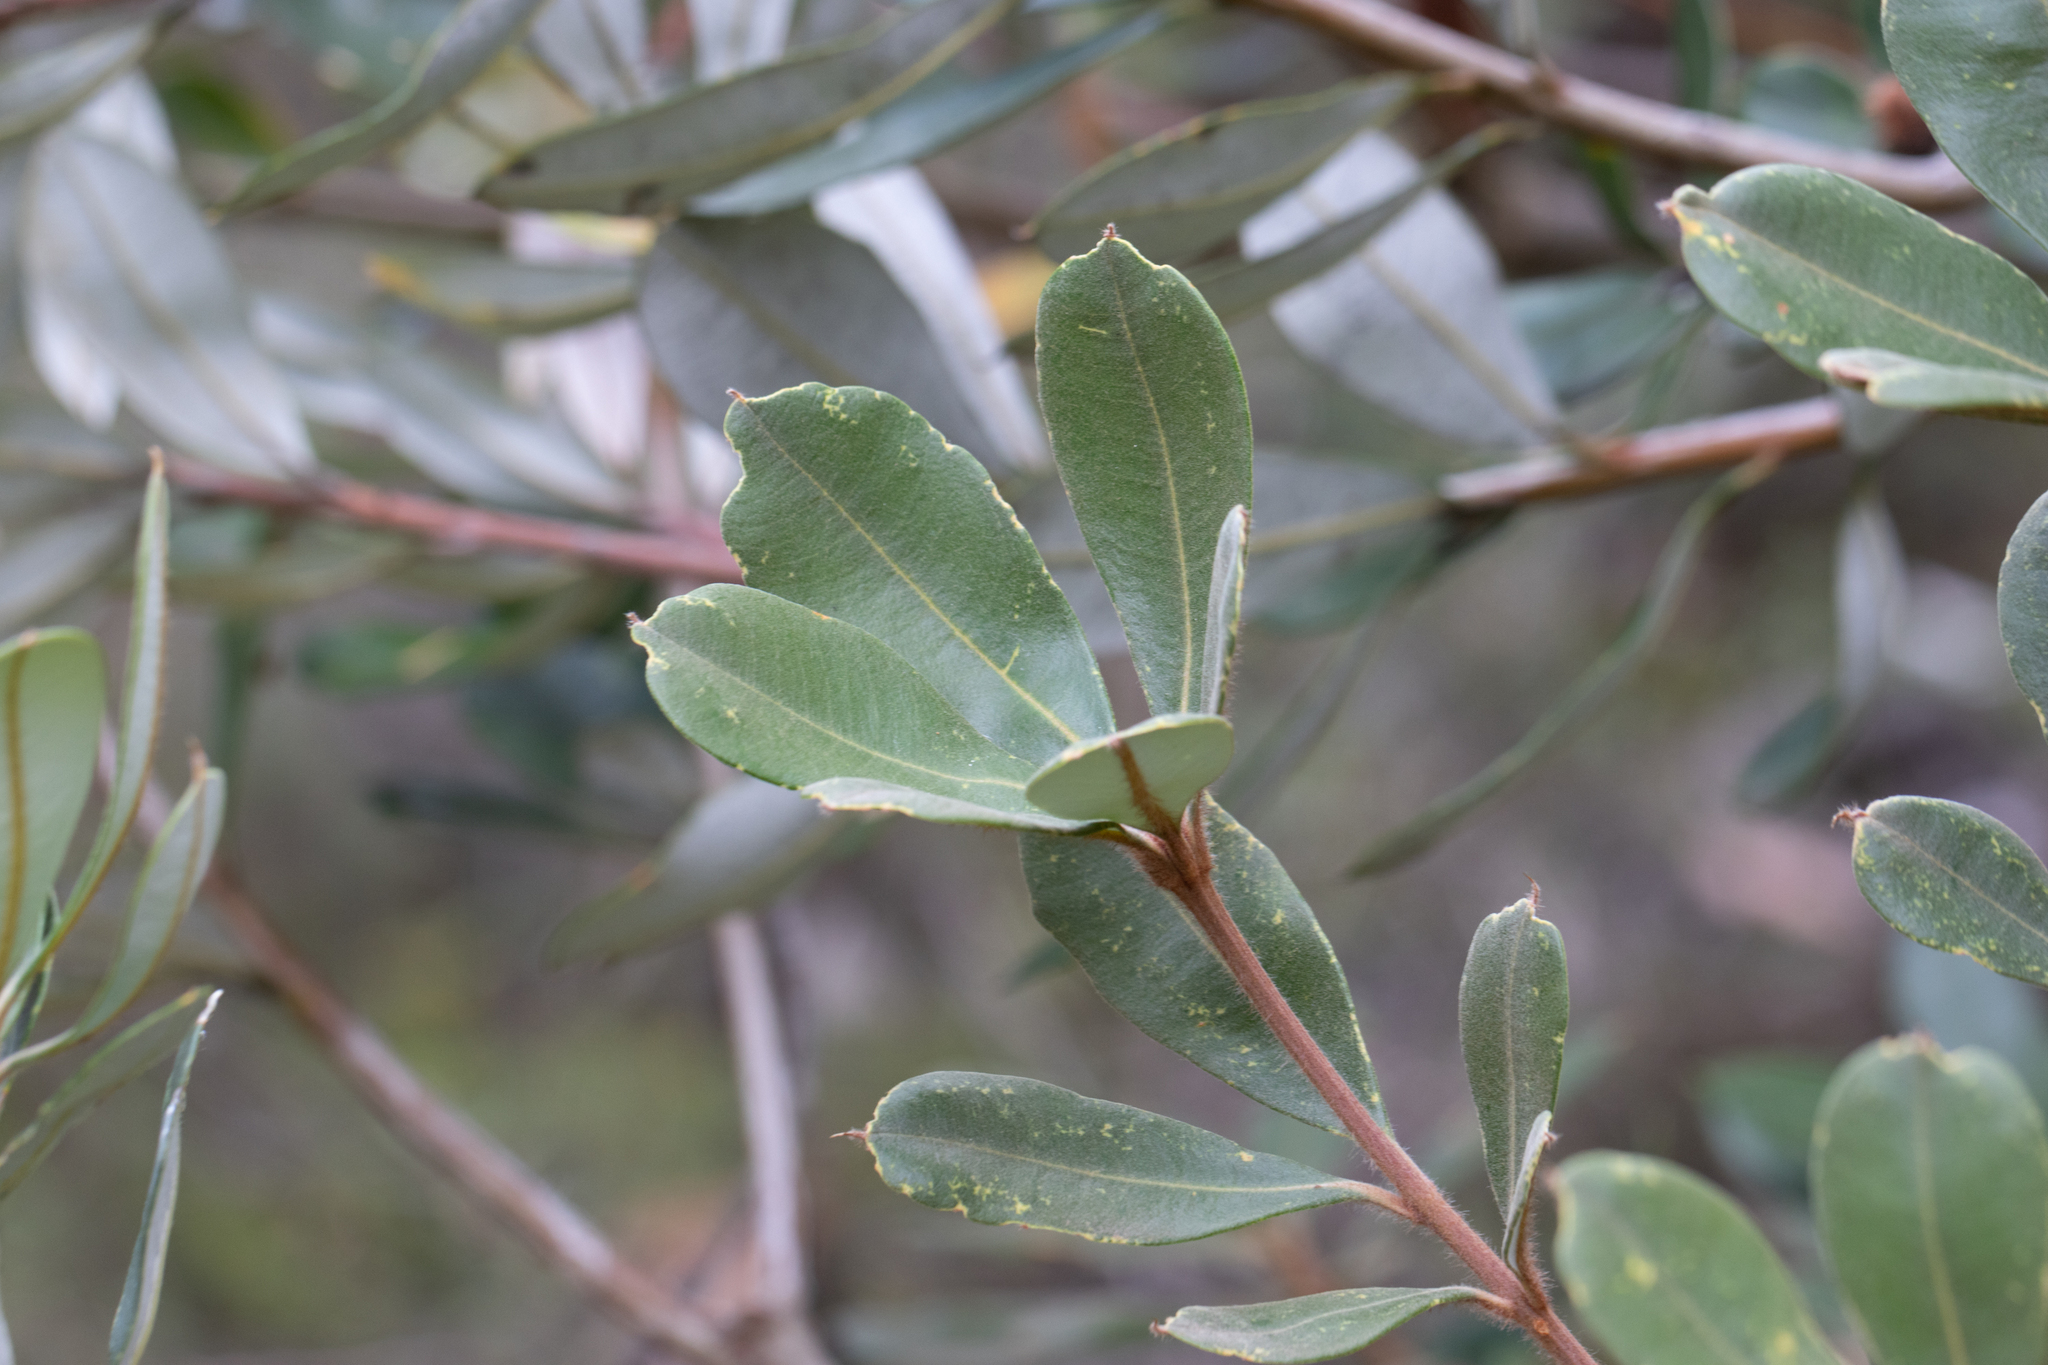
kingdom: Plantae
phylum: Tracheophyta
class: Magnoliopsida
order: Proteales
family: Proteaceae
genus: Banksia
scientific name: Banksia saxicola
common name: Grampians banksia
